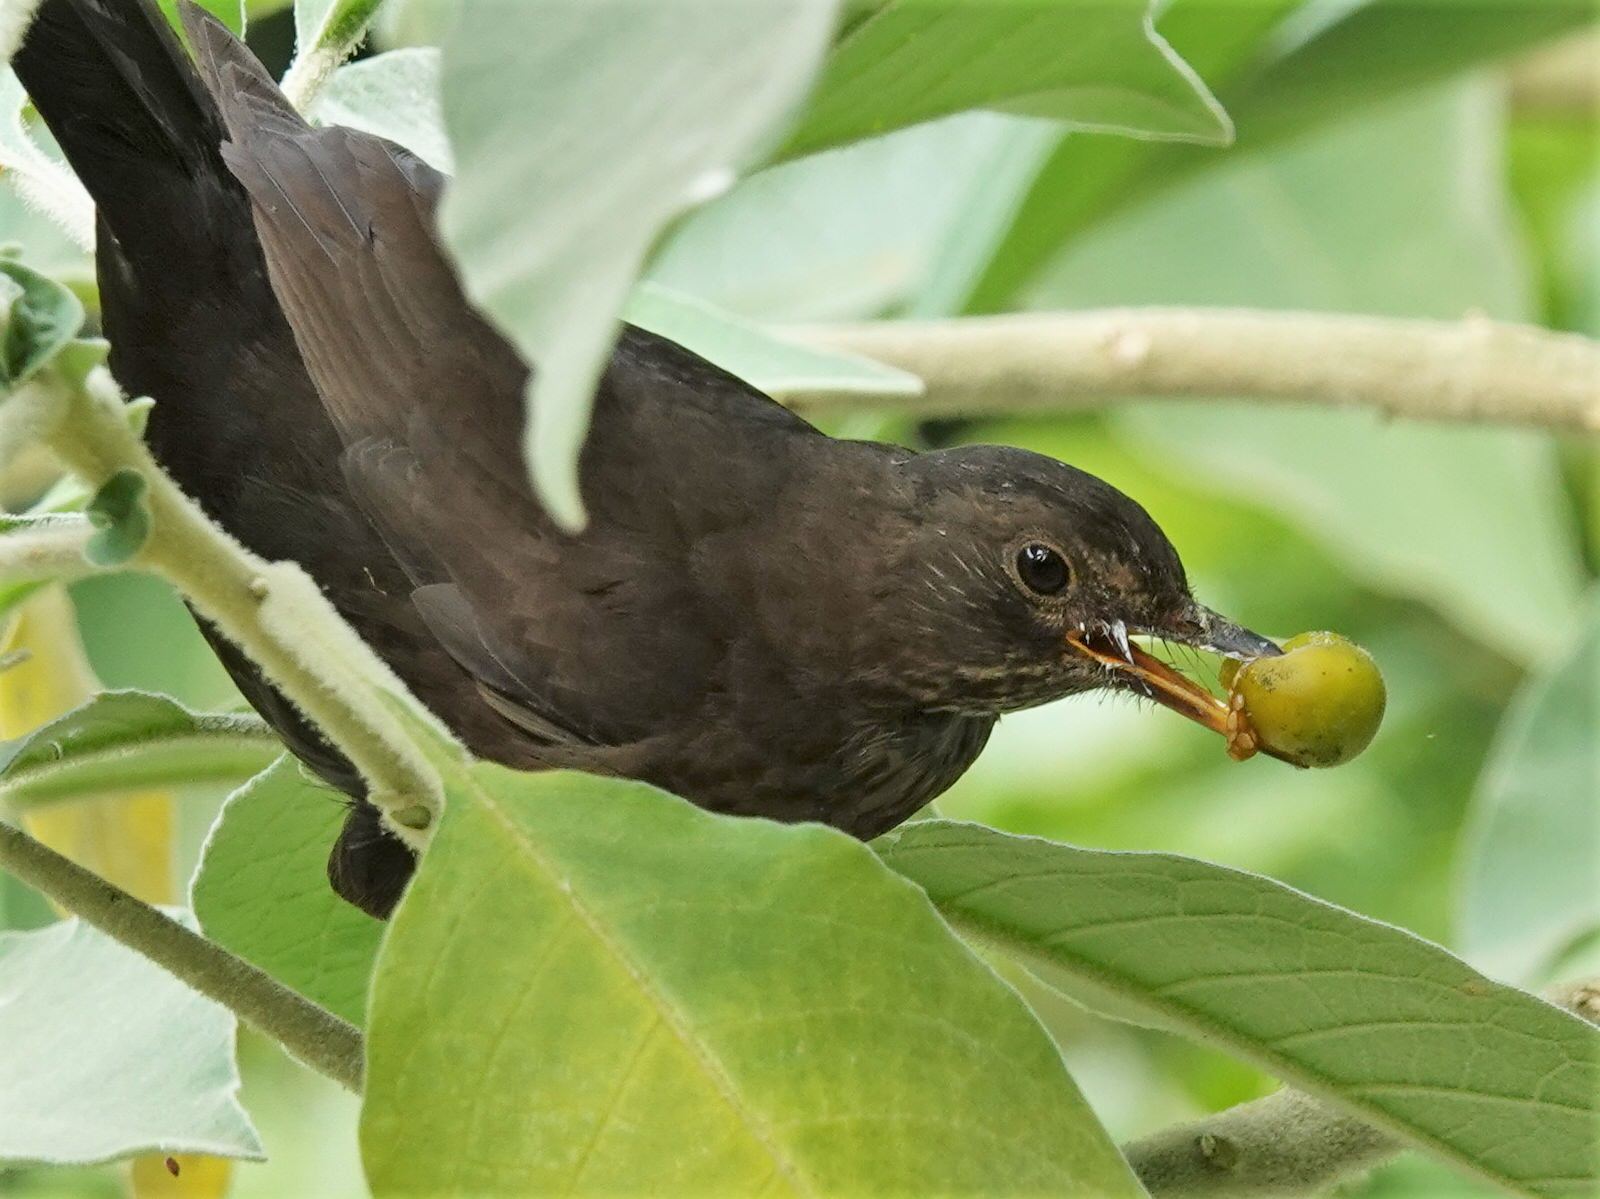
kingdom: Animalia
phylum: Chordata
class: Aves
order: Passeriformes
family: Turdidae
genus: Turdus
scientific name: Turdus merula
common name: Common blackbird
